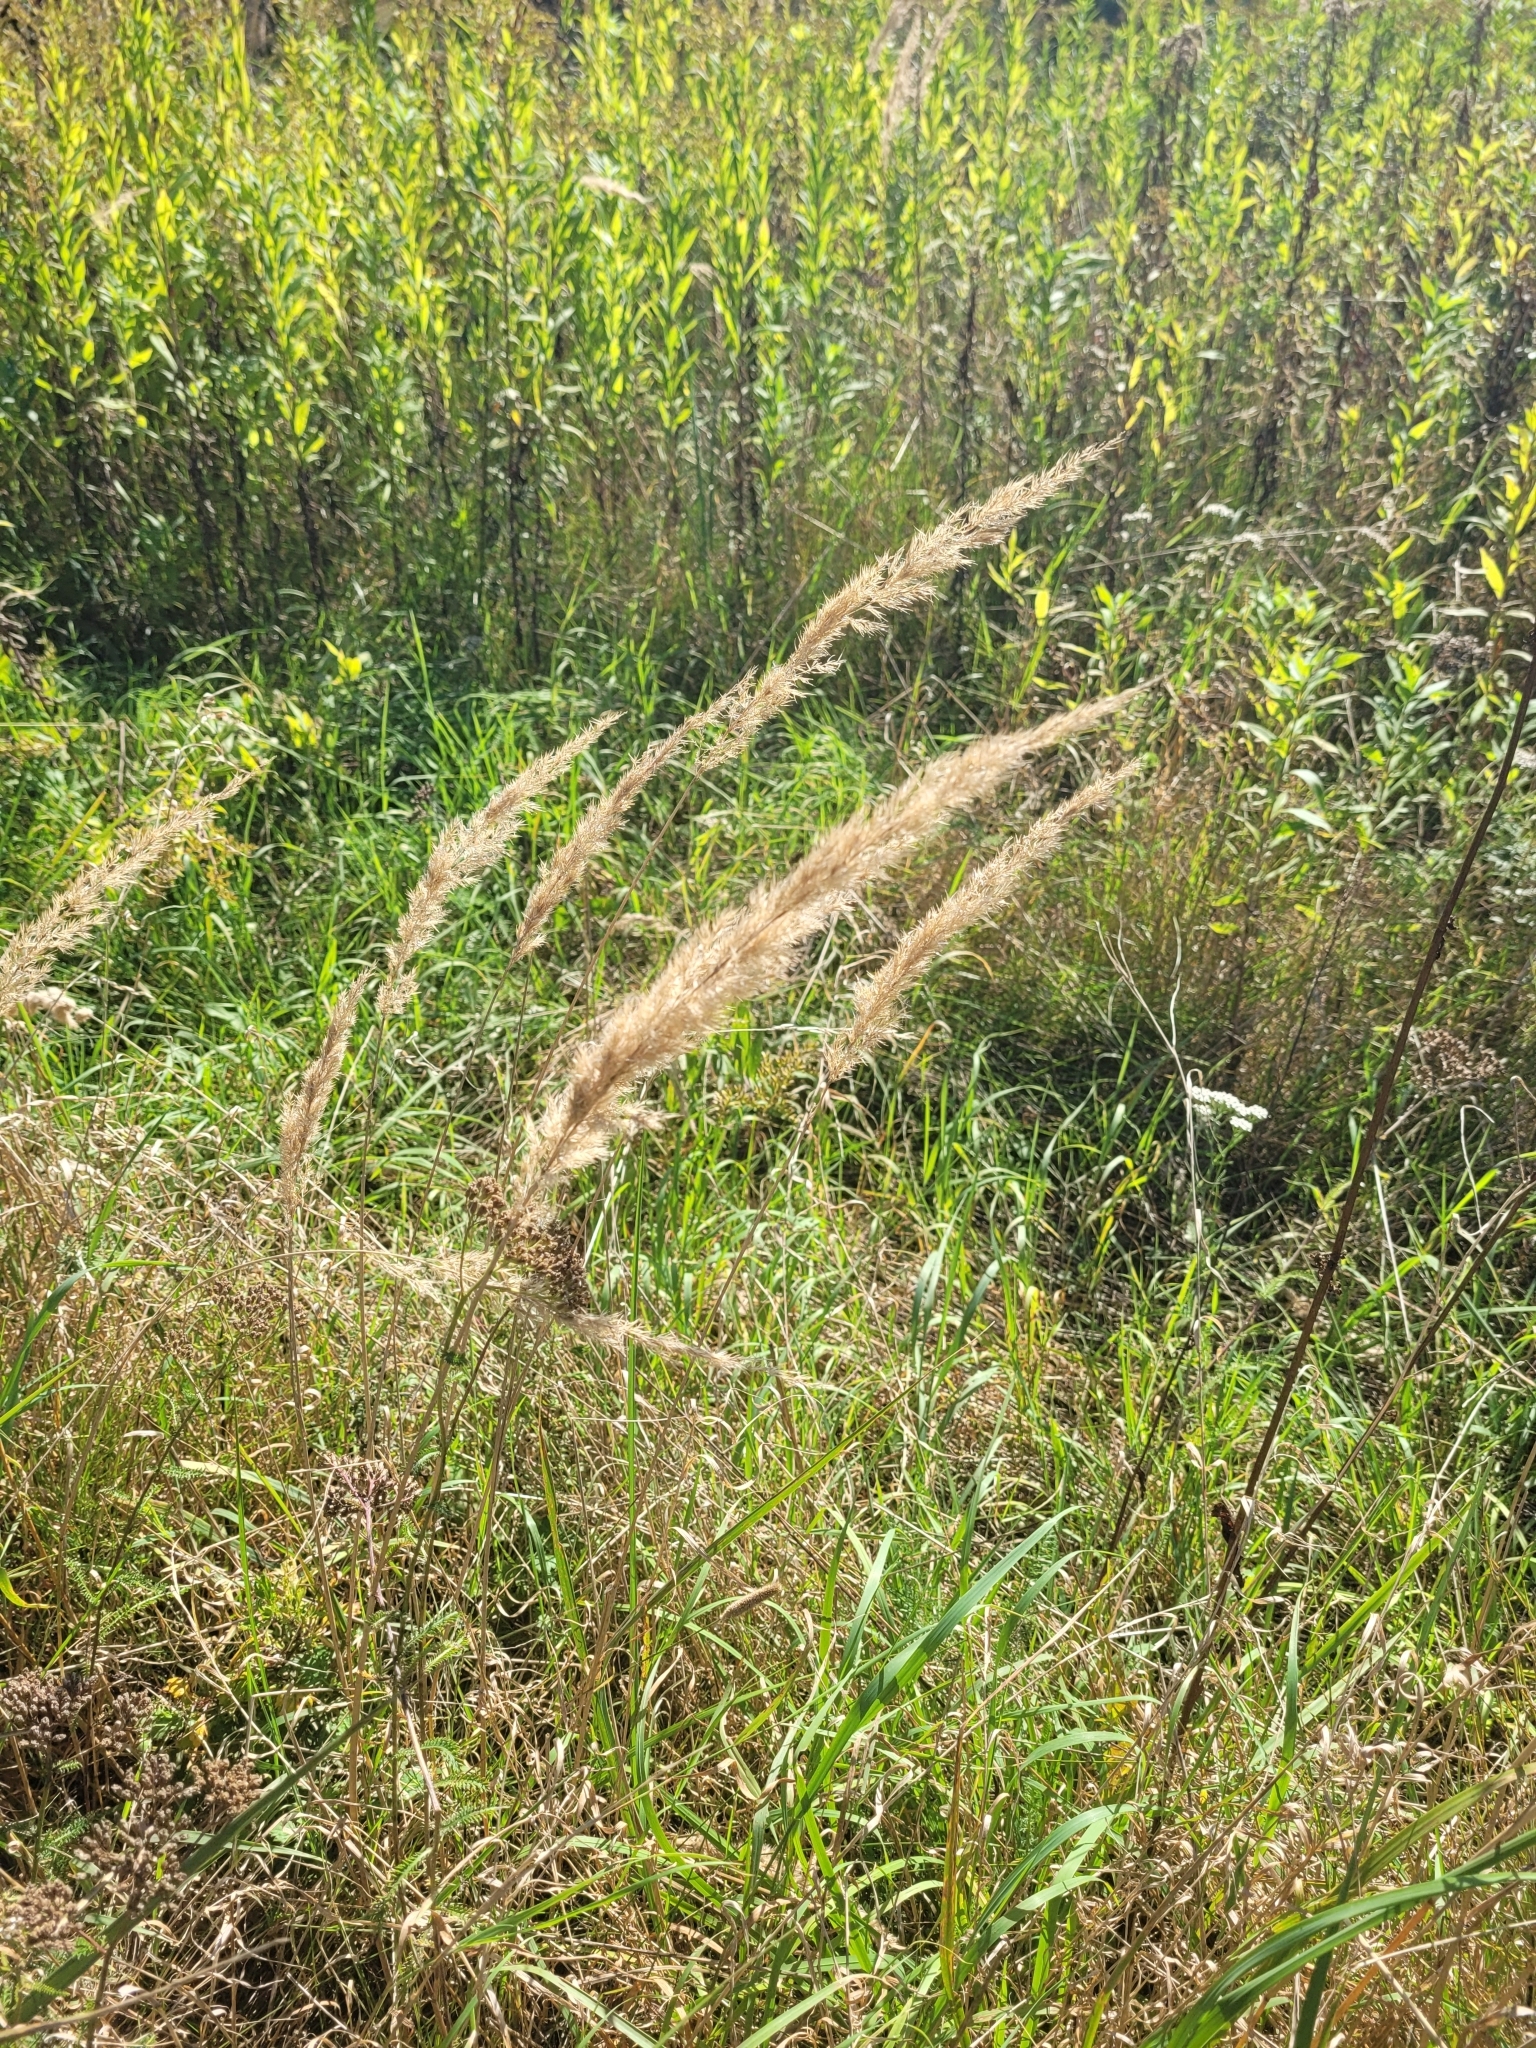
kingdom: Plantae
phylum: Tracheophyta
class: Liliopsida
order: Poales
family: Poaceae
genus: Calamagrostis
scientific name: Calamagrostis epigejos
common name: Wood small-reed
